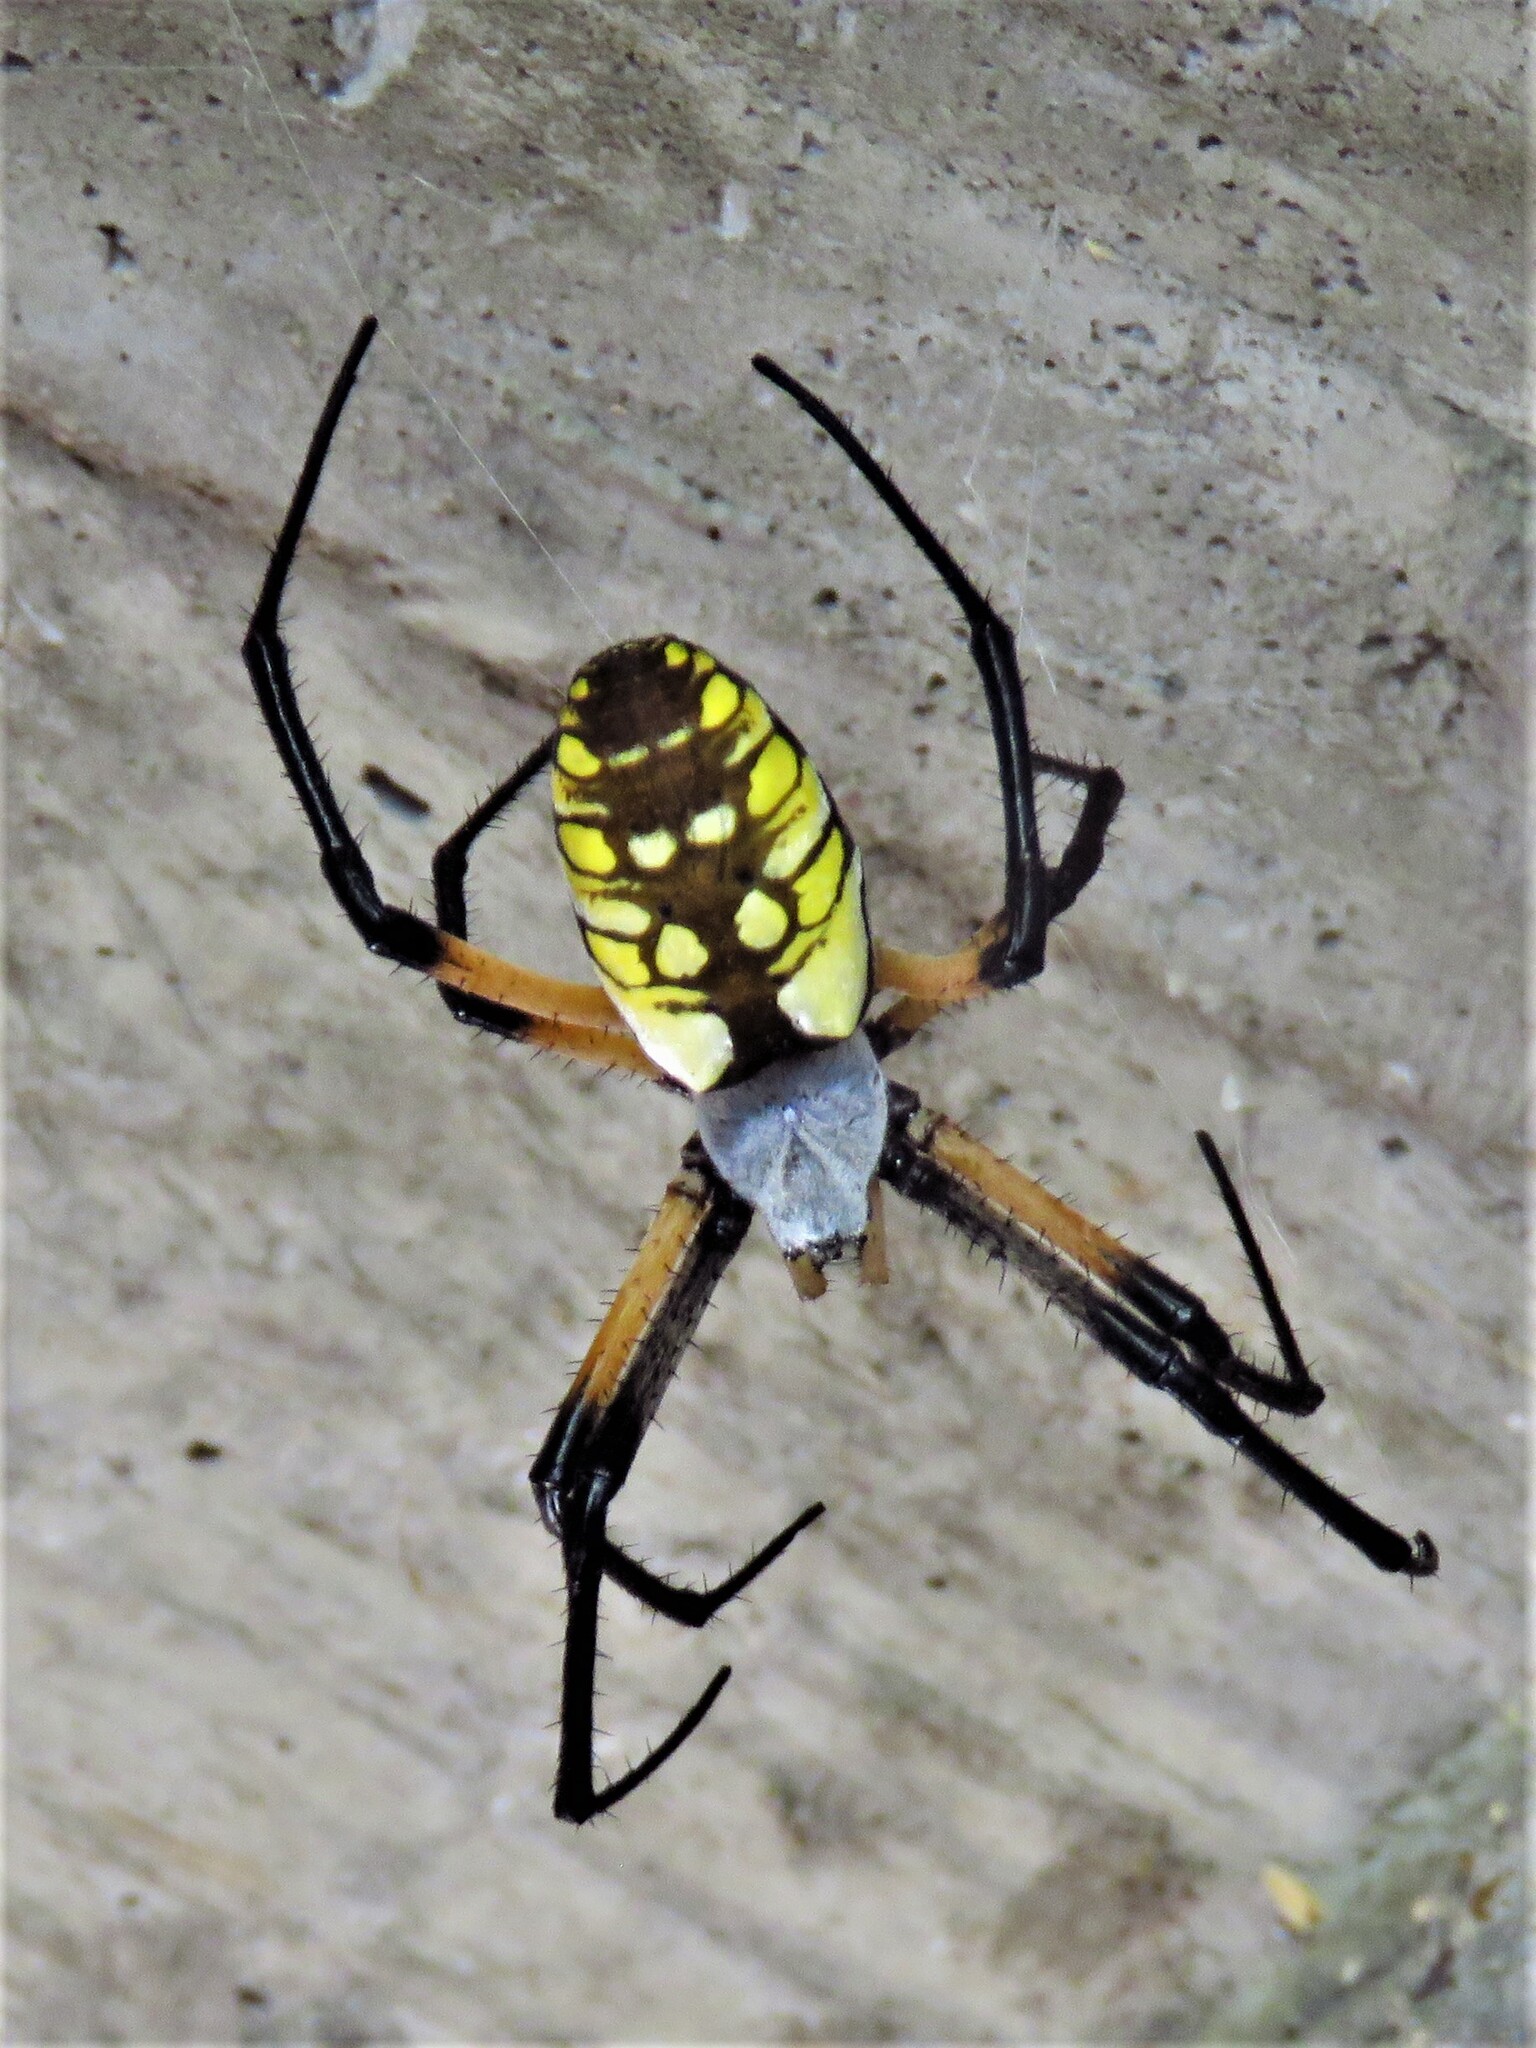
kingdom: Animalia
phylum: Arthropoda
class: Arachnida
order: Araneae
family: Araneidae
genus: Argiope
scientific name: Argiope aurantia
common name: Orb weavers
